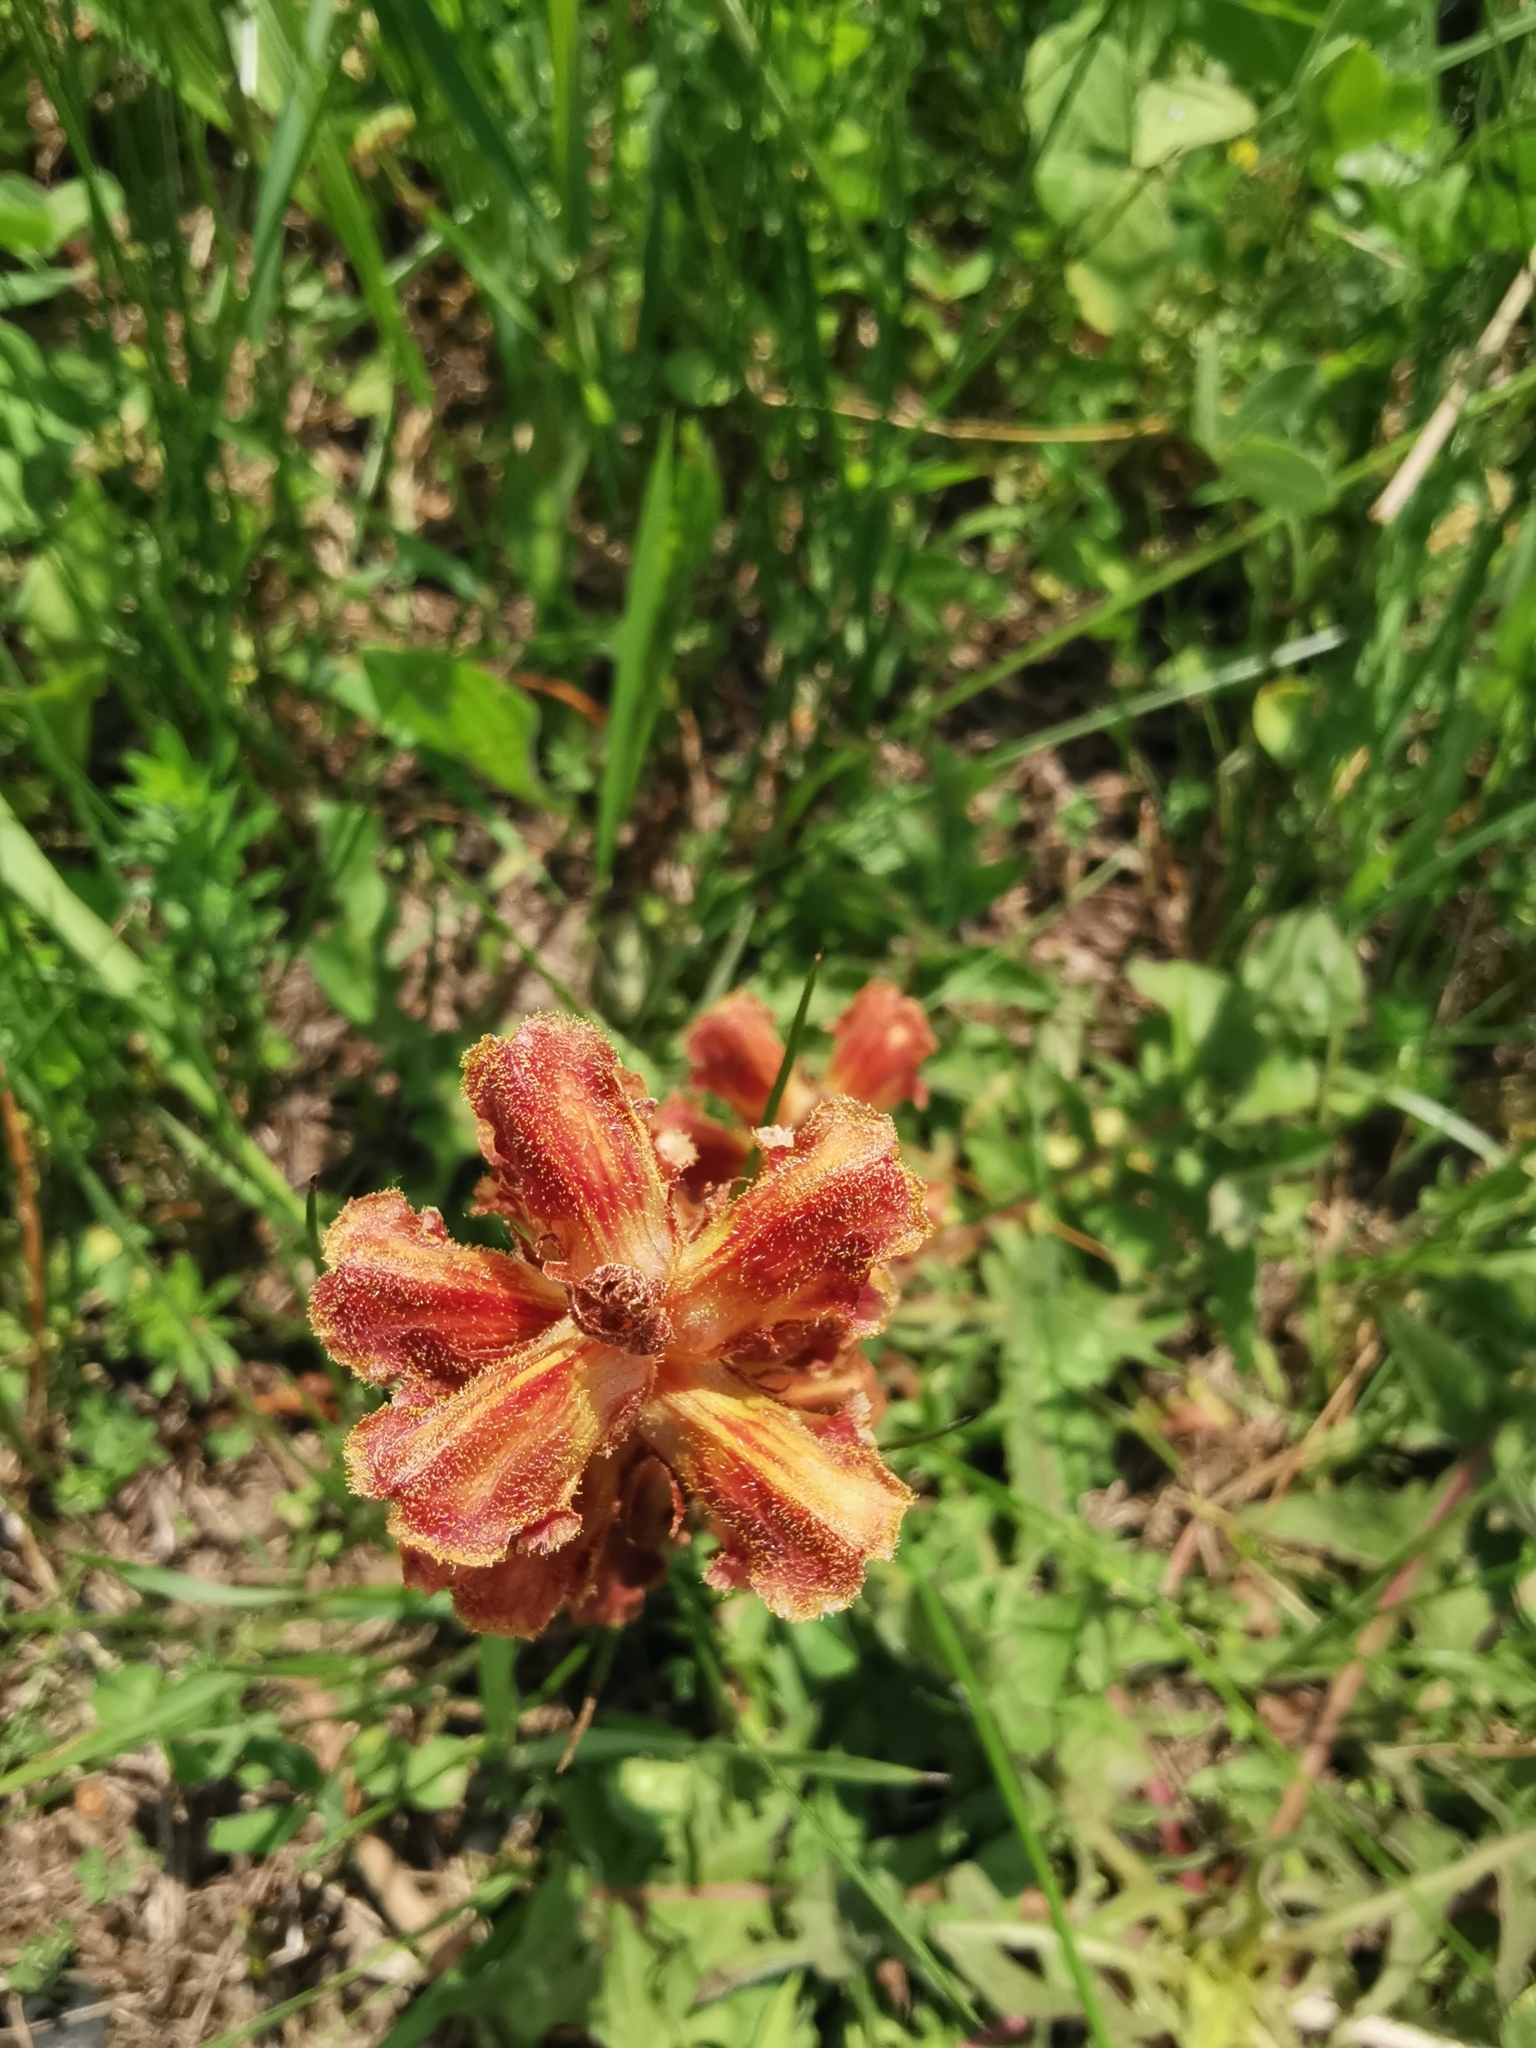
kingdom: Plantae
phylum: Tracheophyta
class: Magnoliopsida
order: Lamiales
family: Orobanchaceae
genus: Orobanche
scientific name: Orobanche gracilis
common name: Slender broomrape
